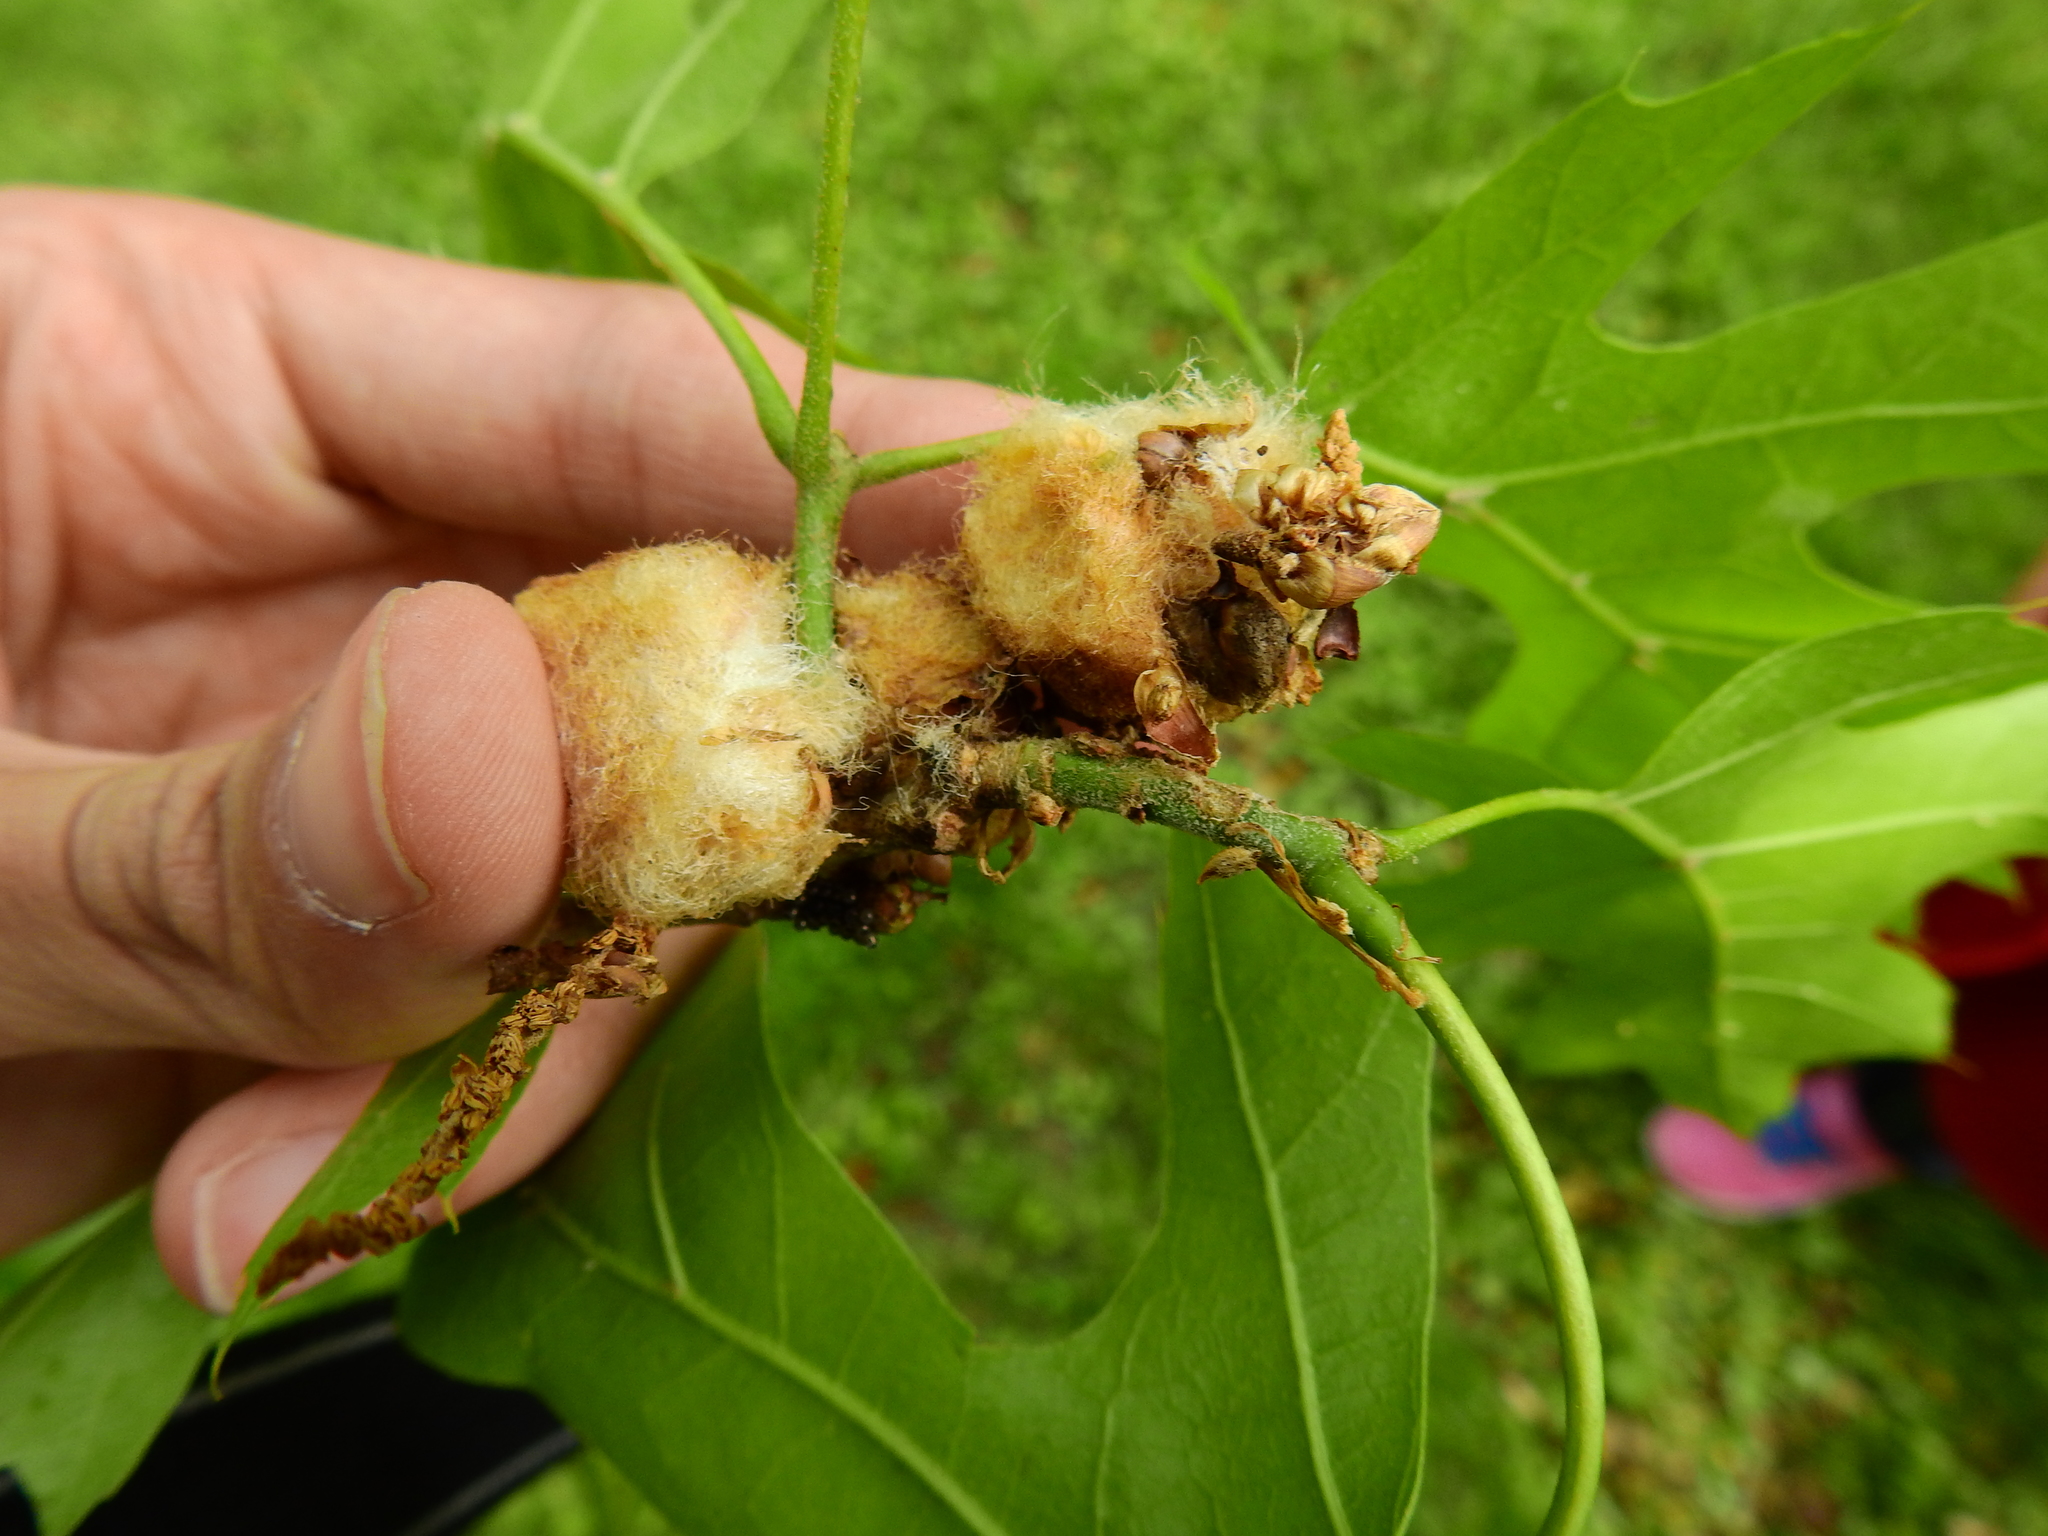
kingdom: Animalia
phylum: Arthropoda
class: Insecta
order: Hymenoptera
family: Cynipidae
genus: Callirhytis
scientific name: Callirhytis
